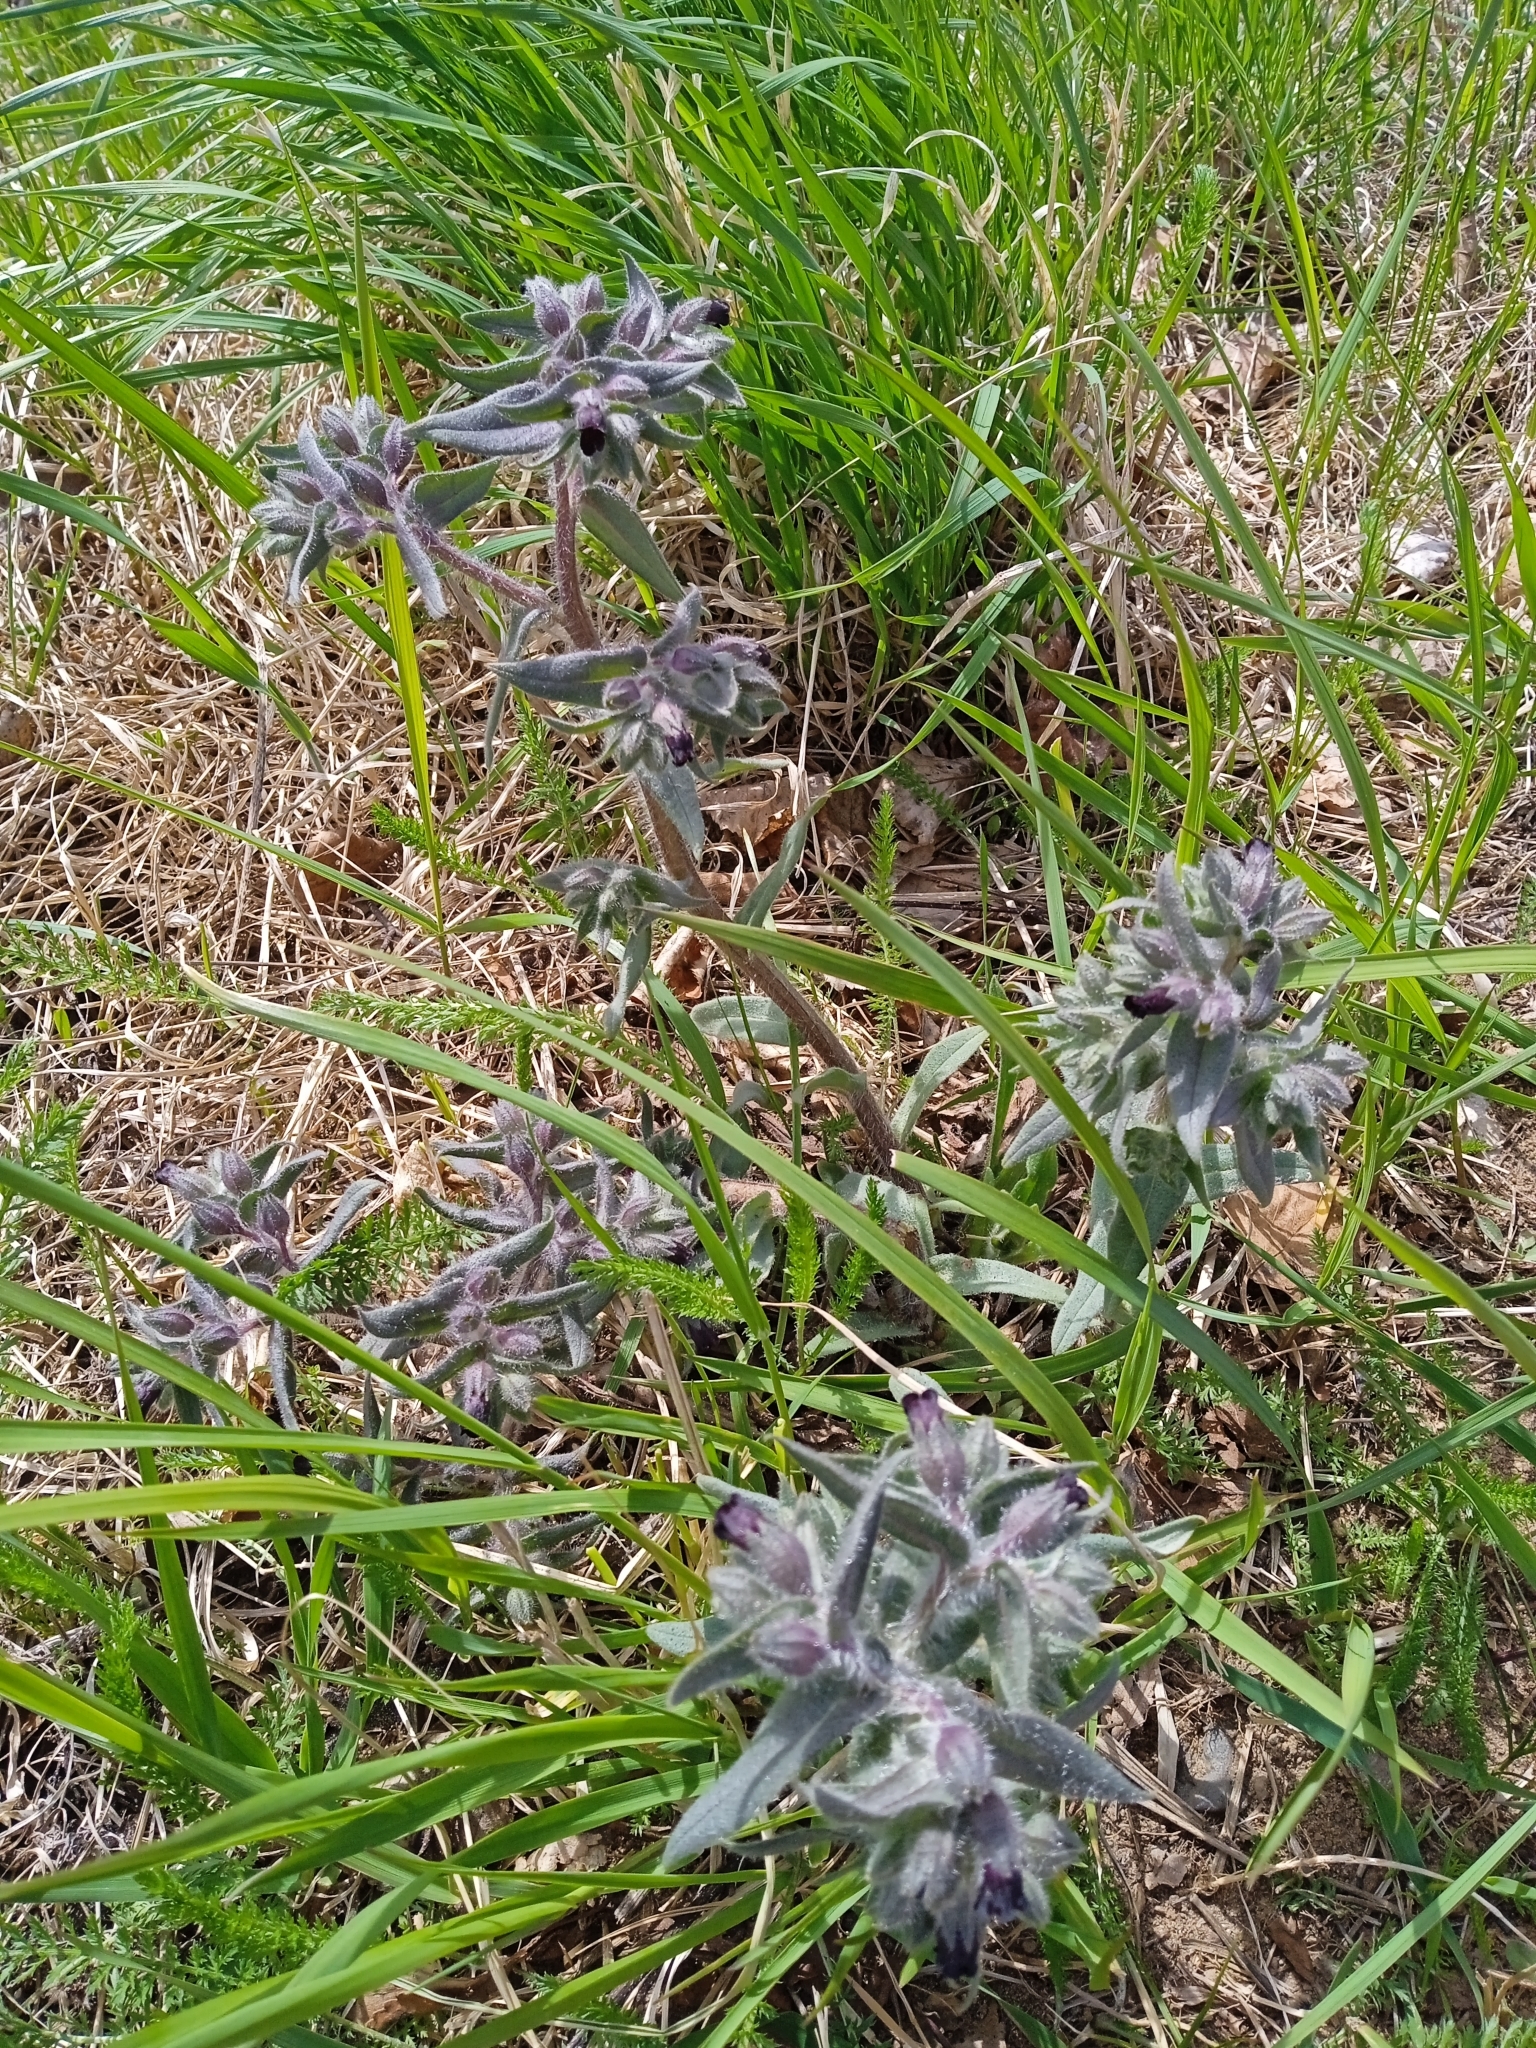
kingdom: Plantae
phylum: Tracheophyta
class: Magnoliopsida
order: Boraginales
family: Boraginaceae
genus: Nonea
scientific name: Nonea pulla
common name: Brown nonea
